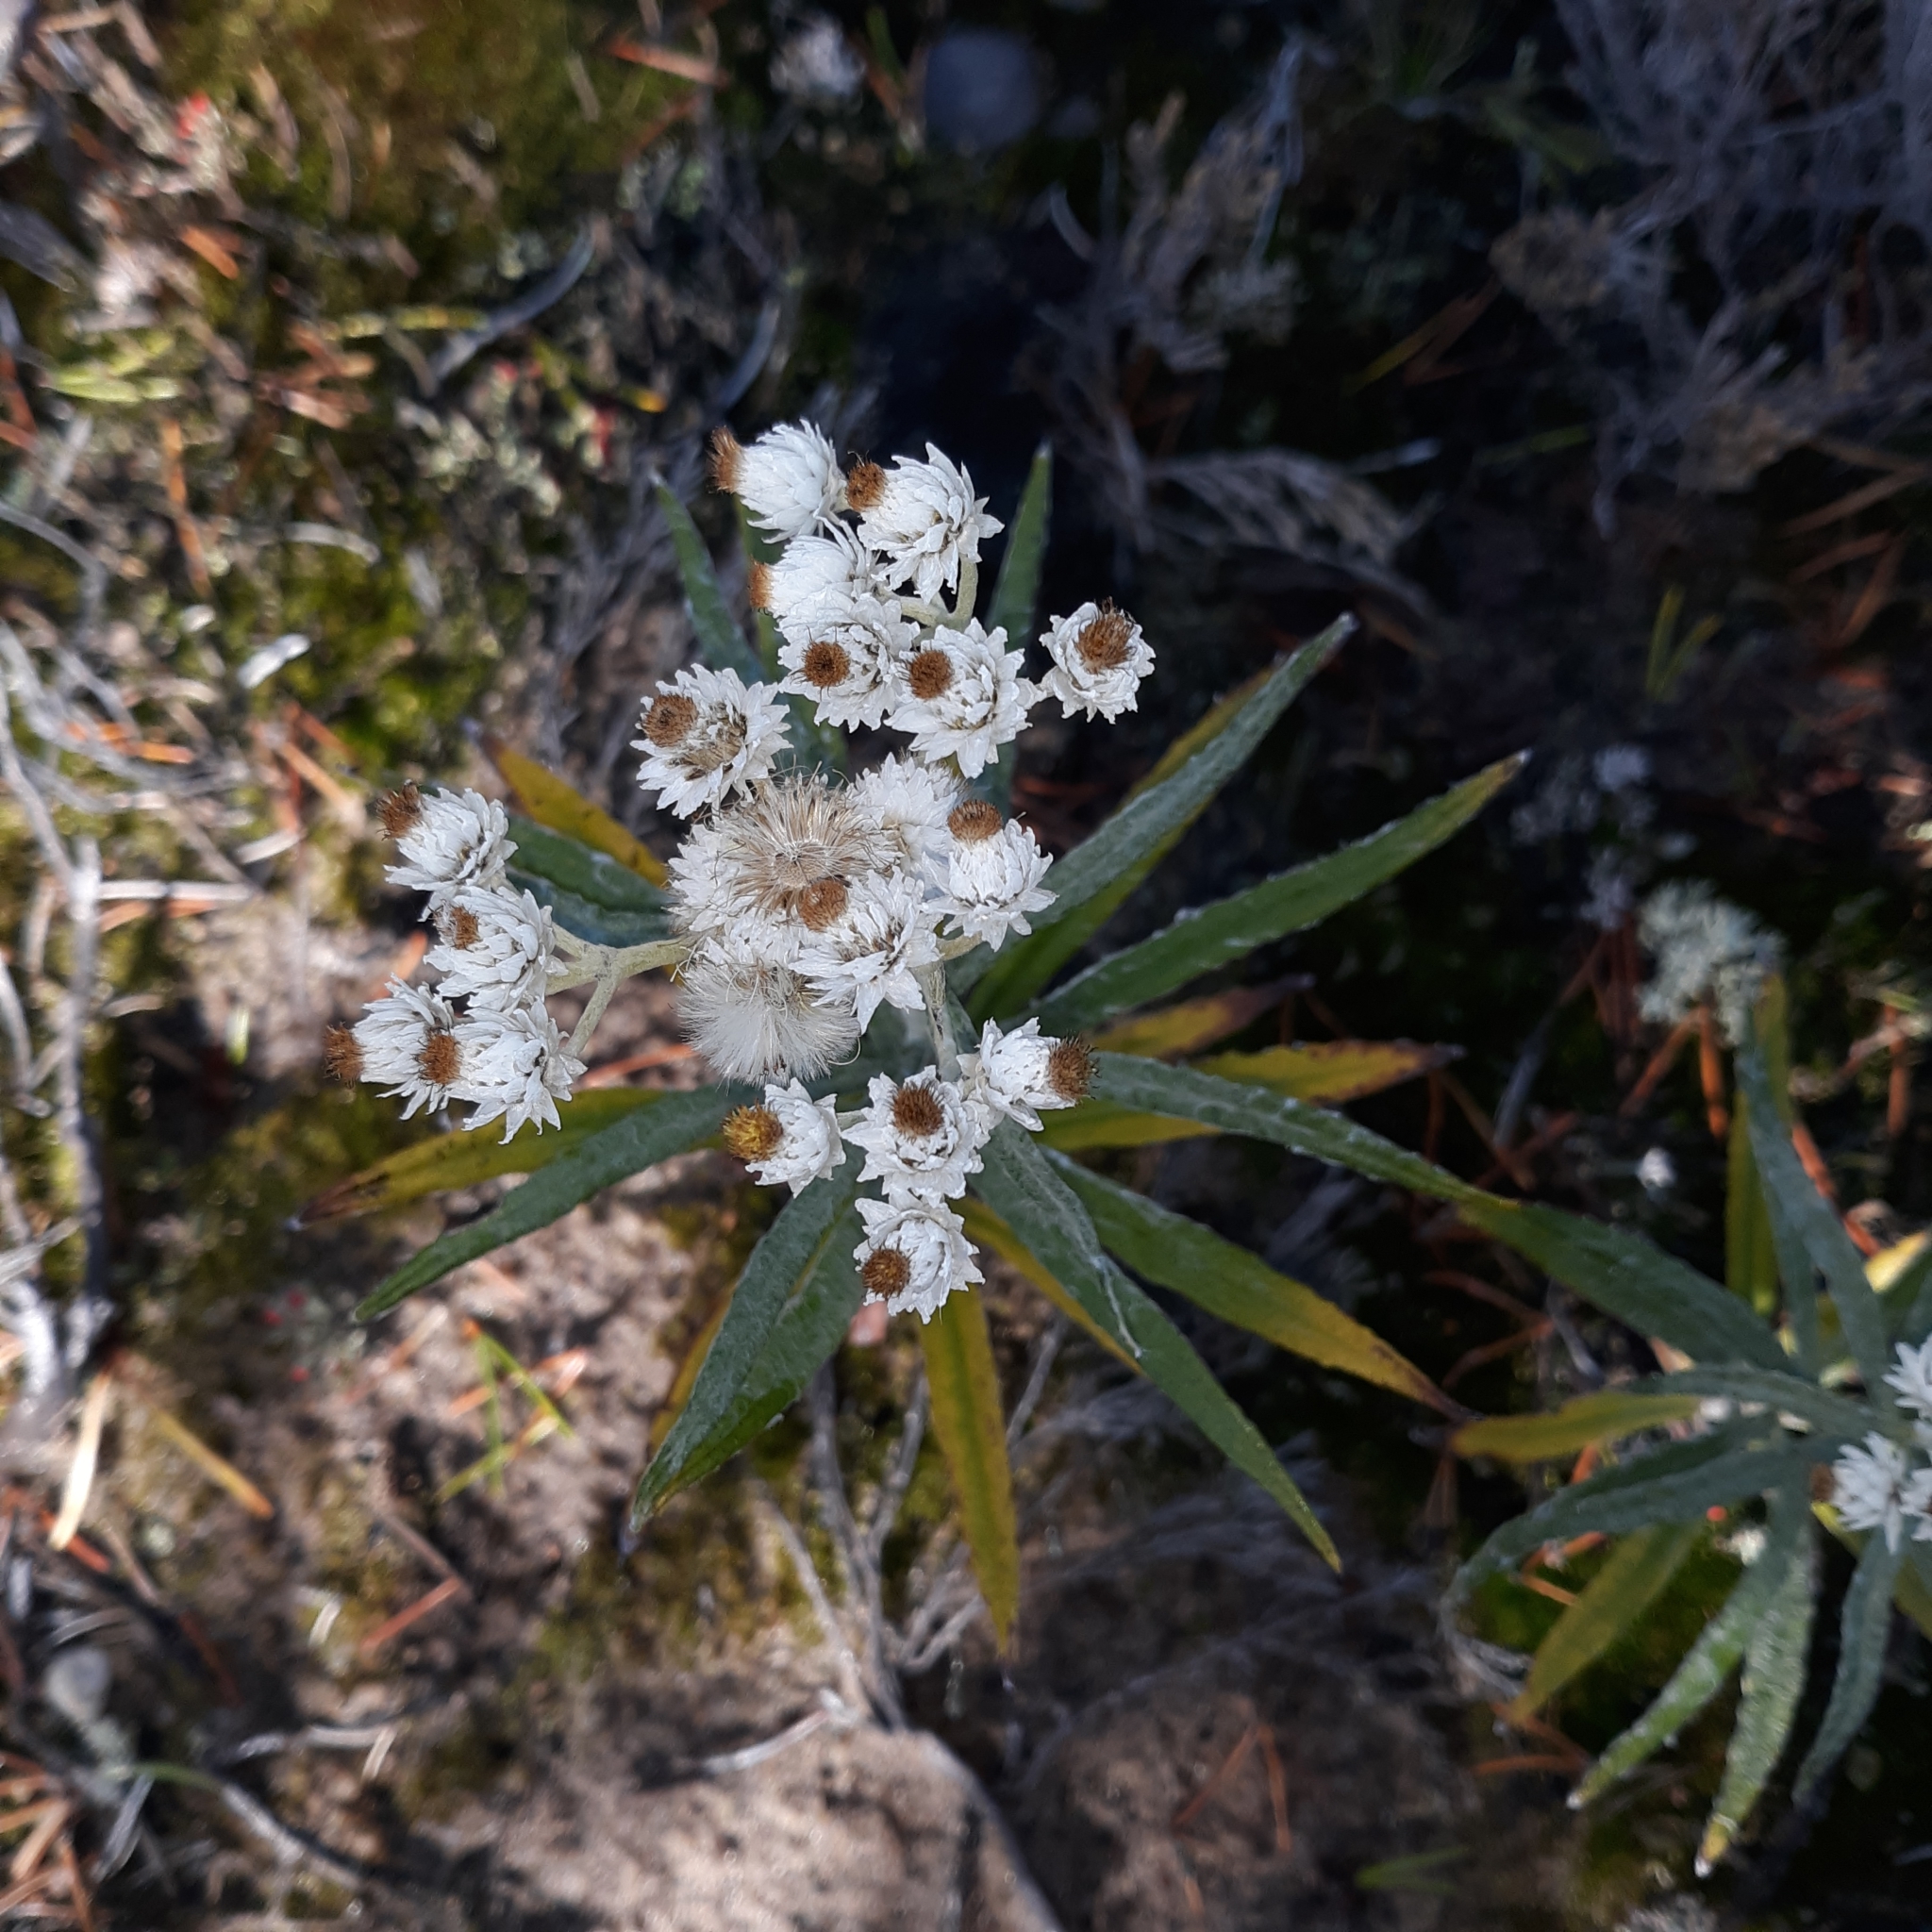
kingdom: Plantae
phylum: Tracheophyta
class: Magnoliopsida
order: Asterales
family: Asteraceae
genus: Anaphalis
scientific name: Anaphalis margaritacea
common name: Pearly everlasting
